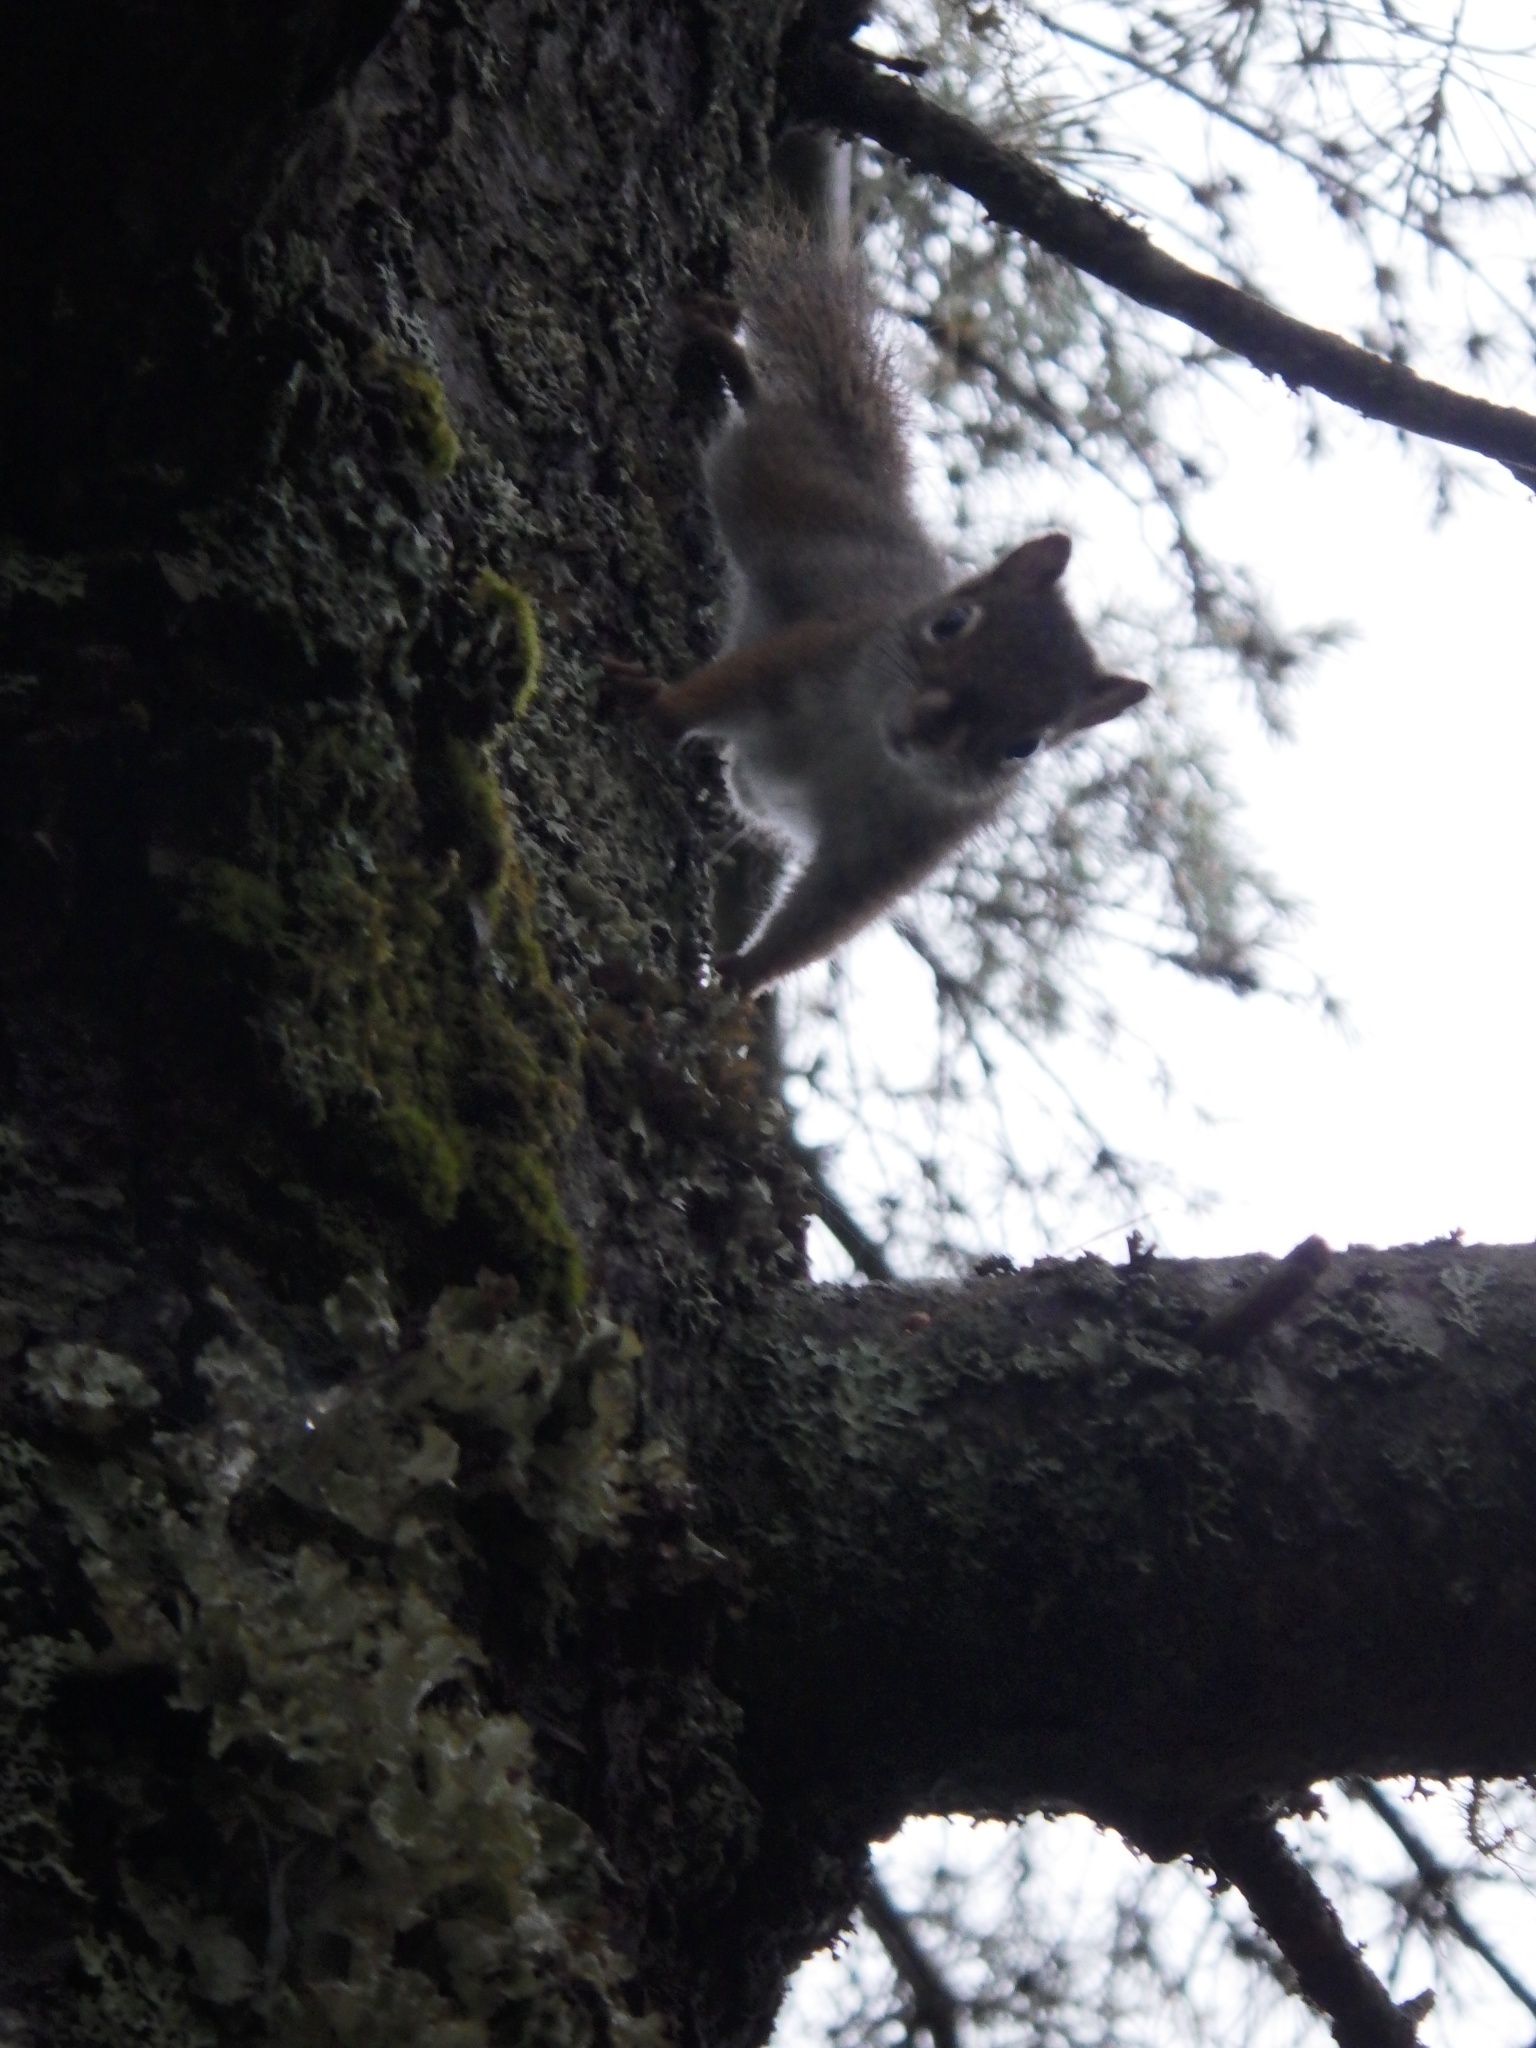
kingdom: Animalia
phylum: Chordata
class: Mammalia
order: Rodentia
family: Sciuridae
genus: Tamiasciurus
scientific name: Tamiasciurus hudsonicus
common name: Red squirrel
